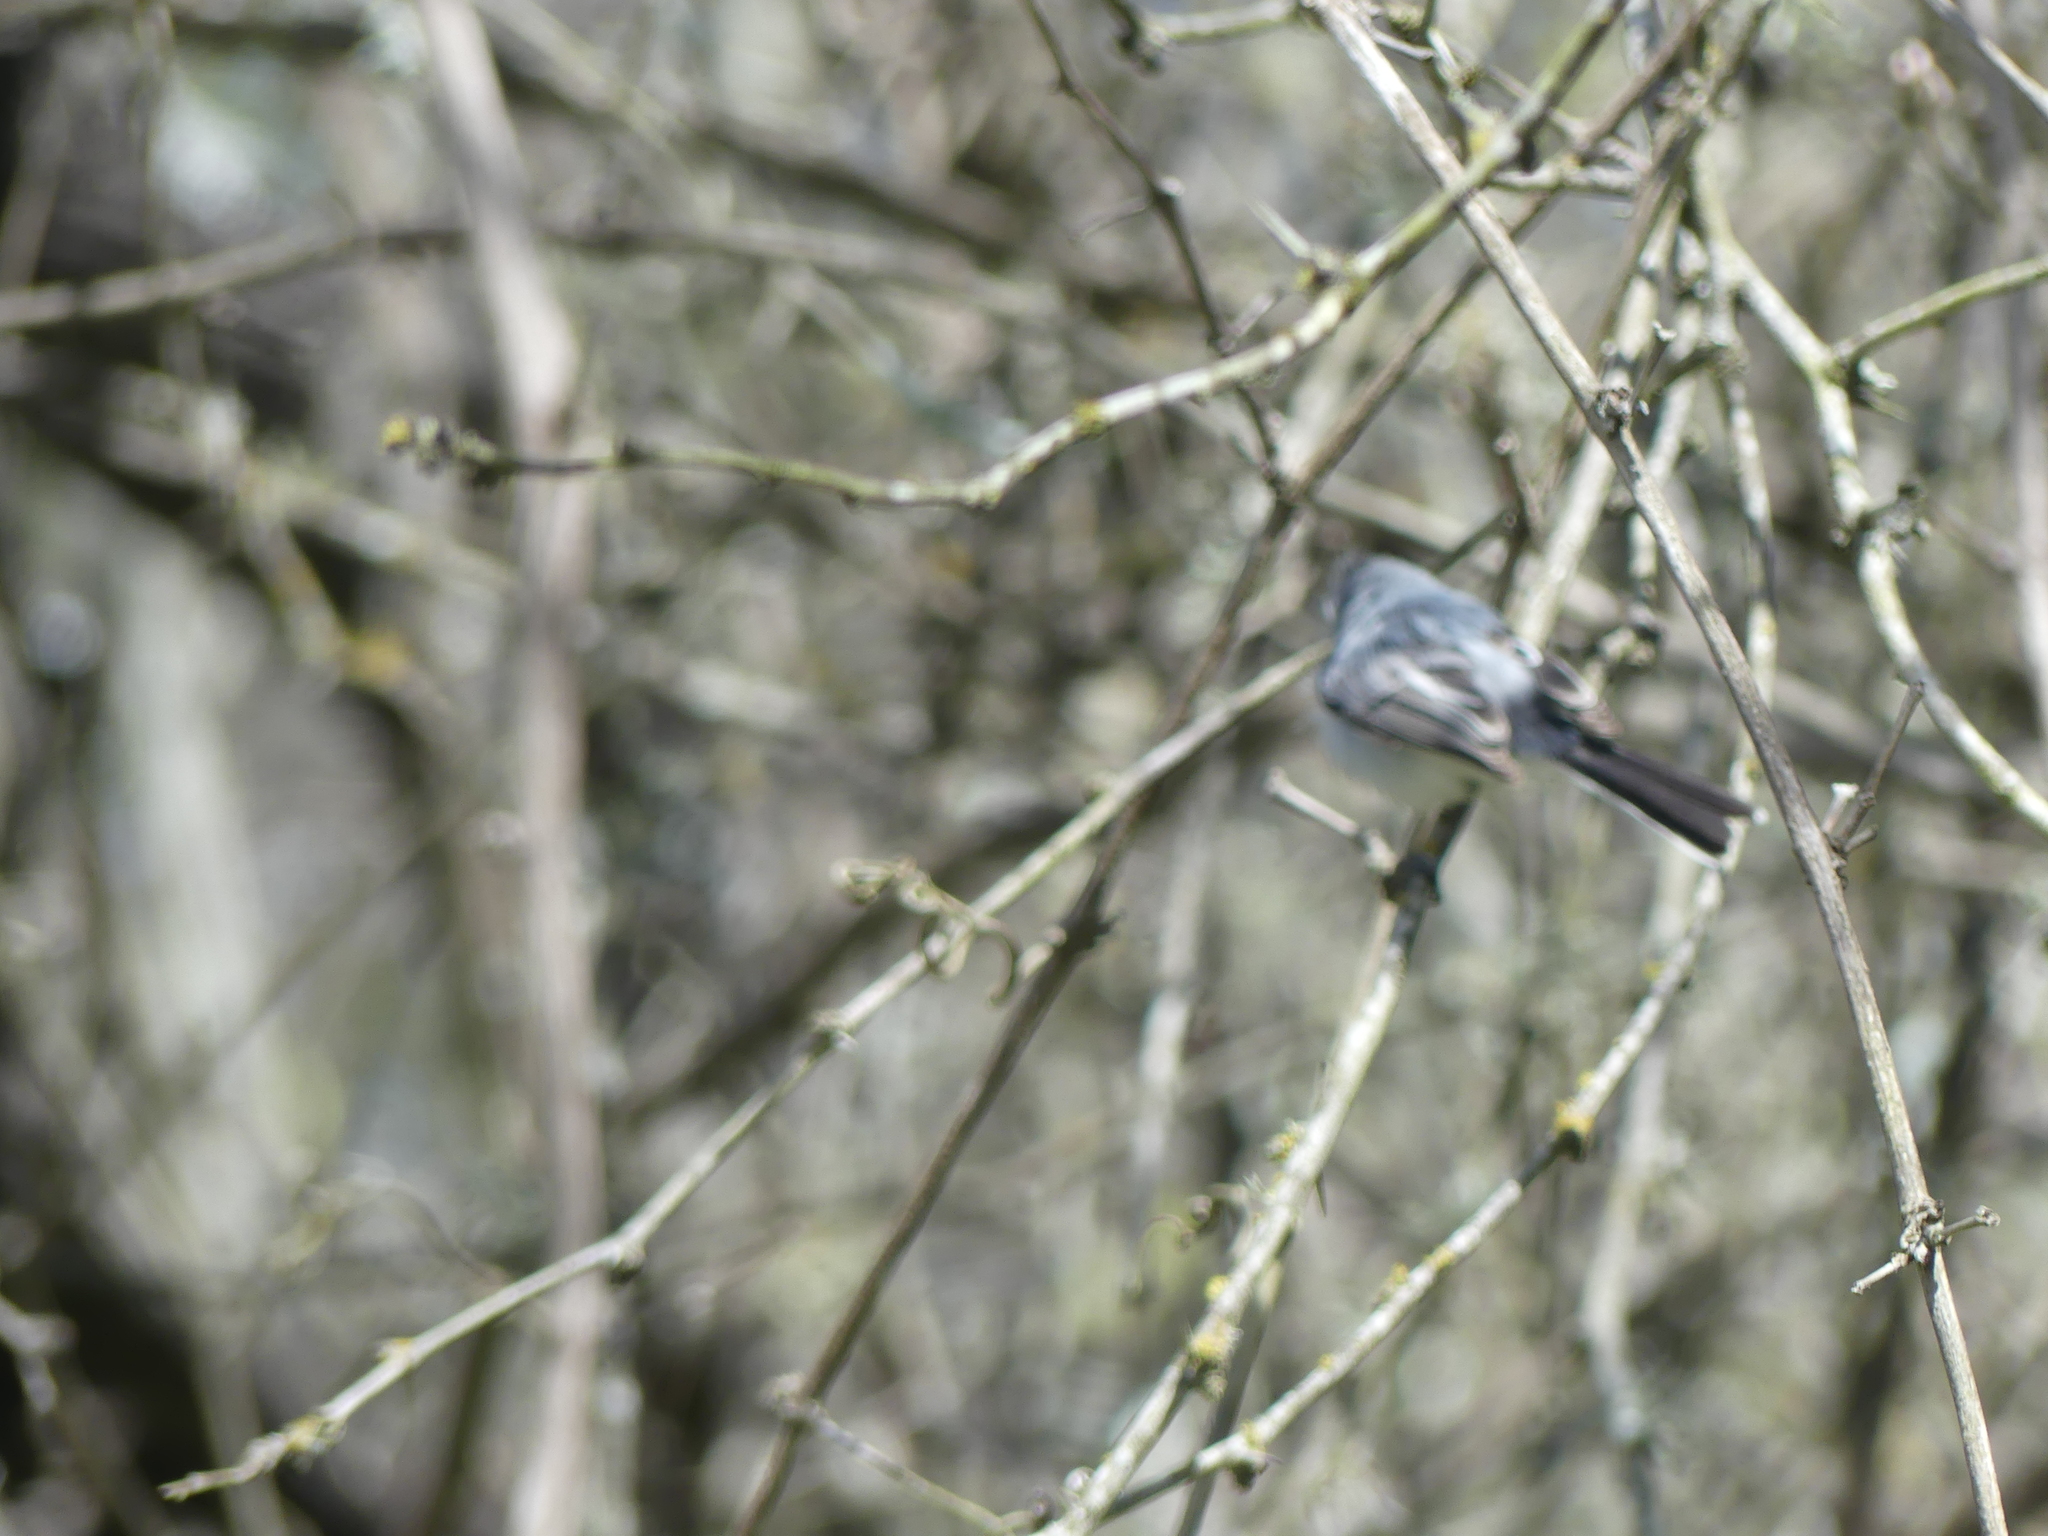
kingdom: Animalia
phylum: Chordata
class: Aves
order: Passeriformes
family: Polioptilidae
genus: Polioptila
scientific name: Polioptila caerulea
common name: Blue-gray gnatcatcher
